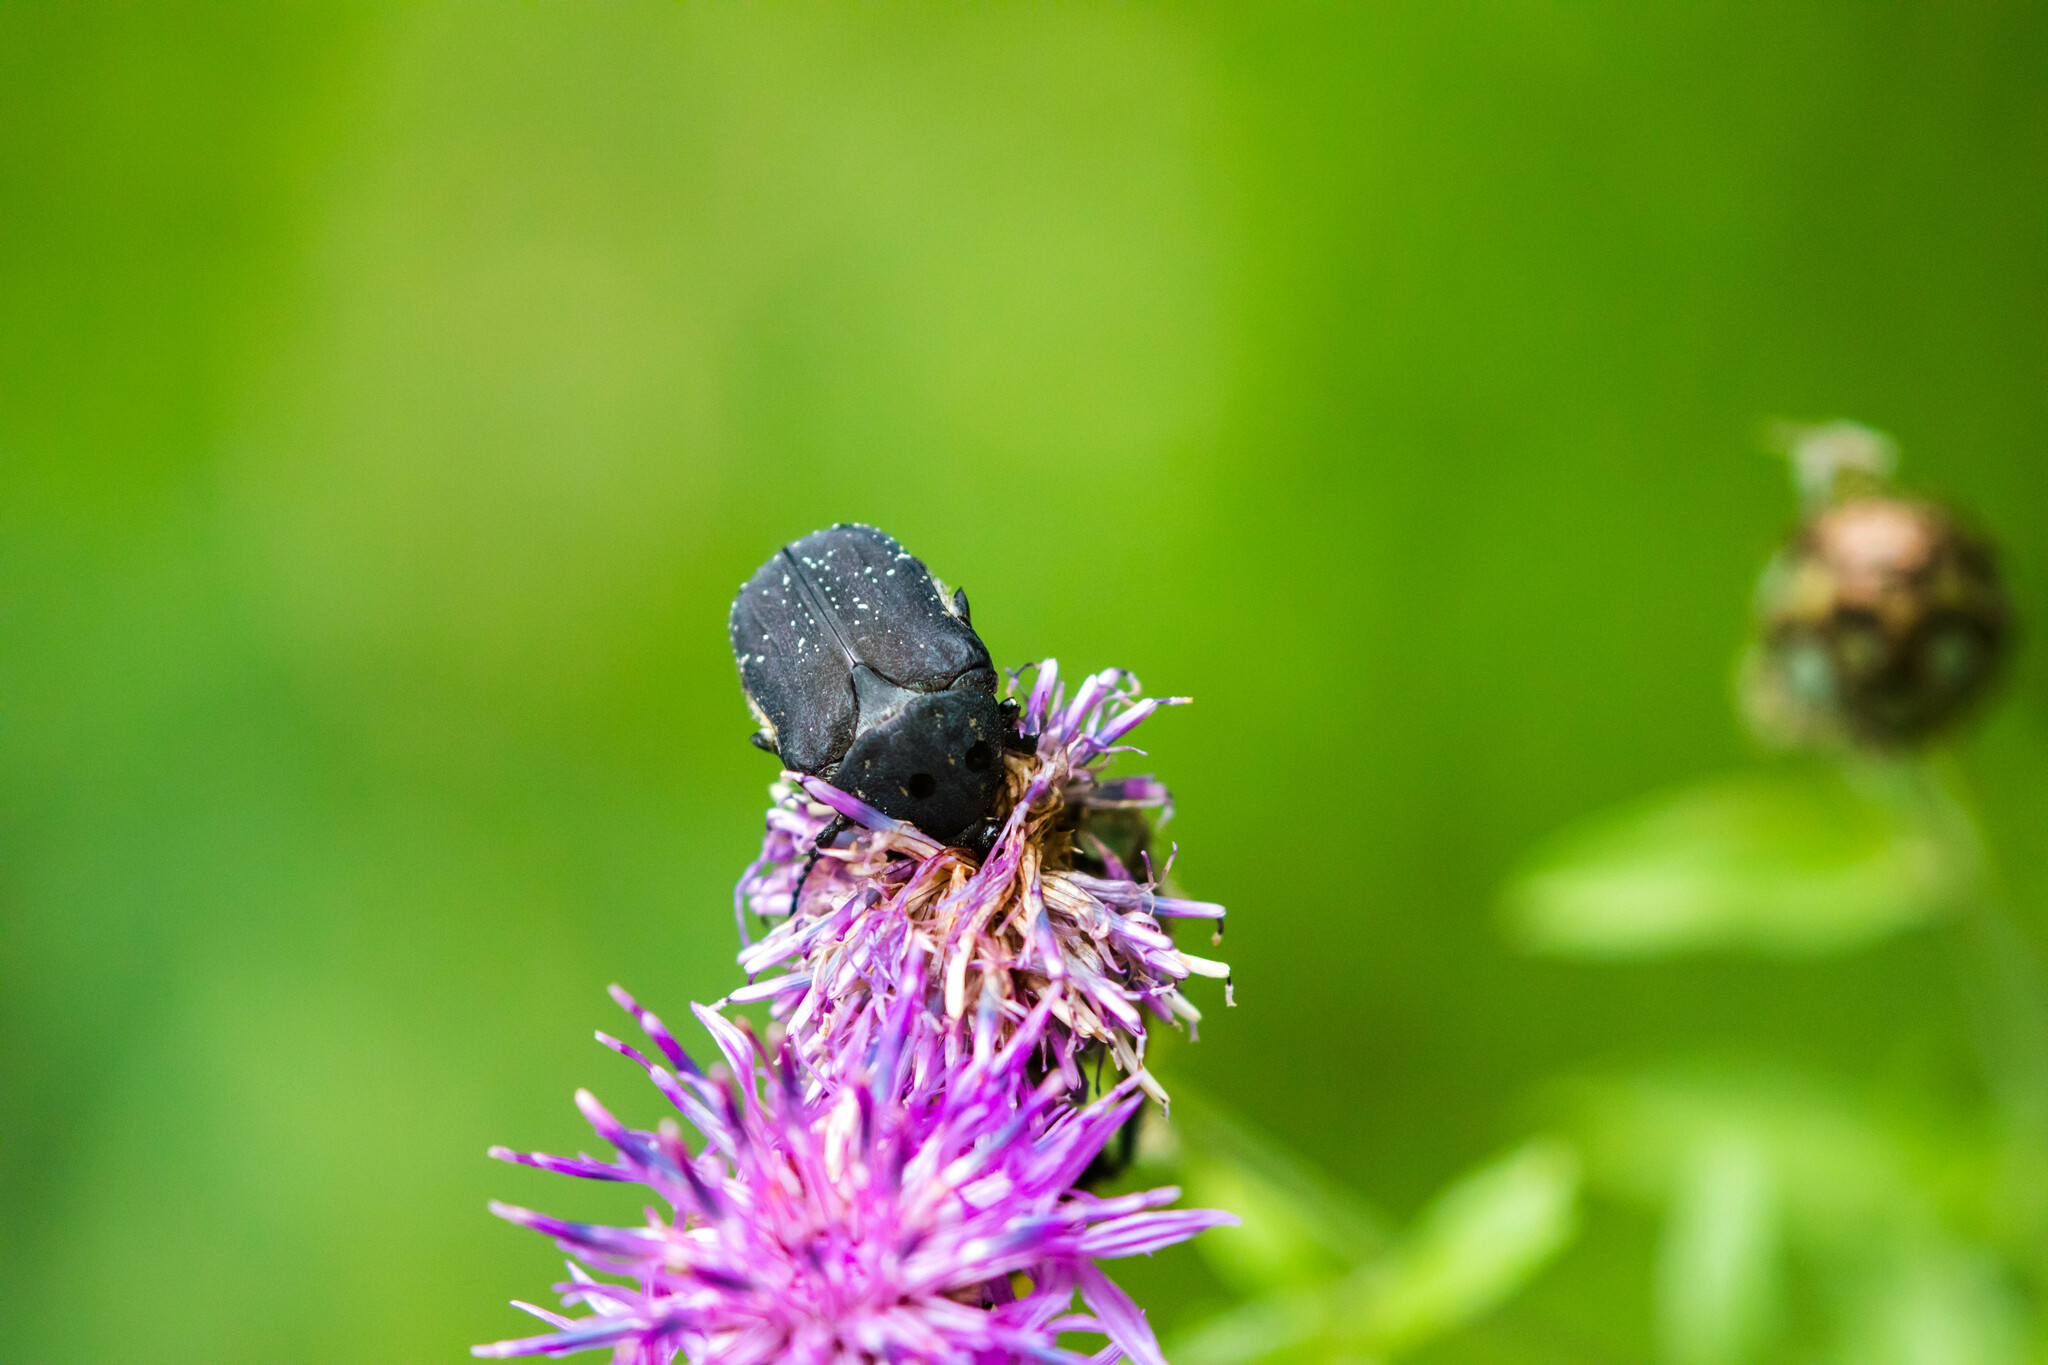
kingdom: Animalia
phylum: Arthropoda
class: Insecta
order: Coleoptera
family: Scarabaeidae
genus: Protaetia
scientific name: Protaetia morio
